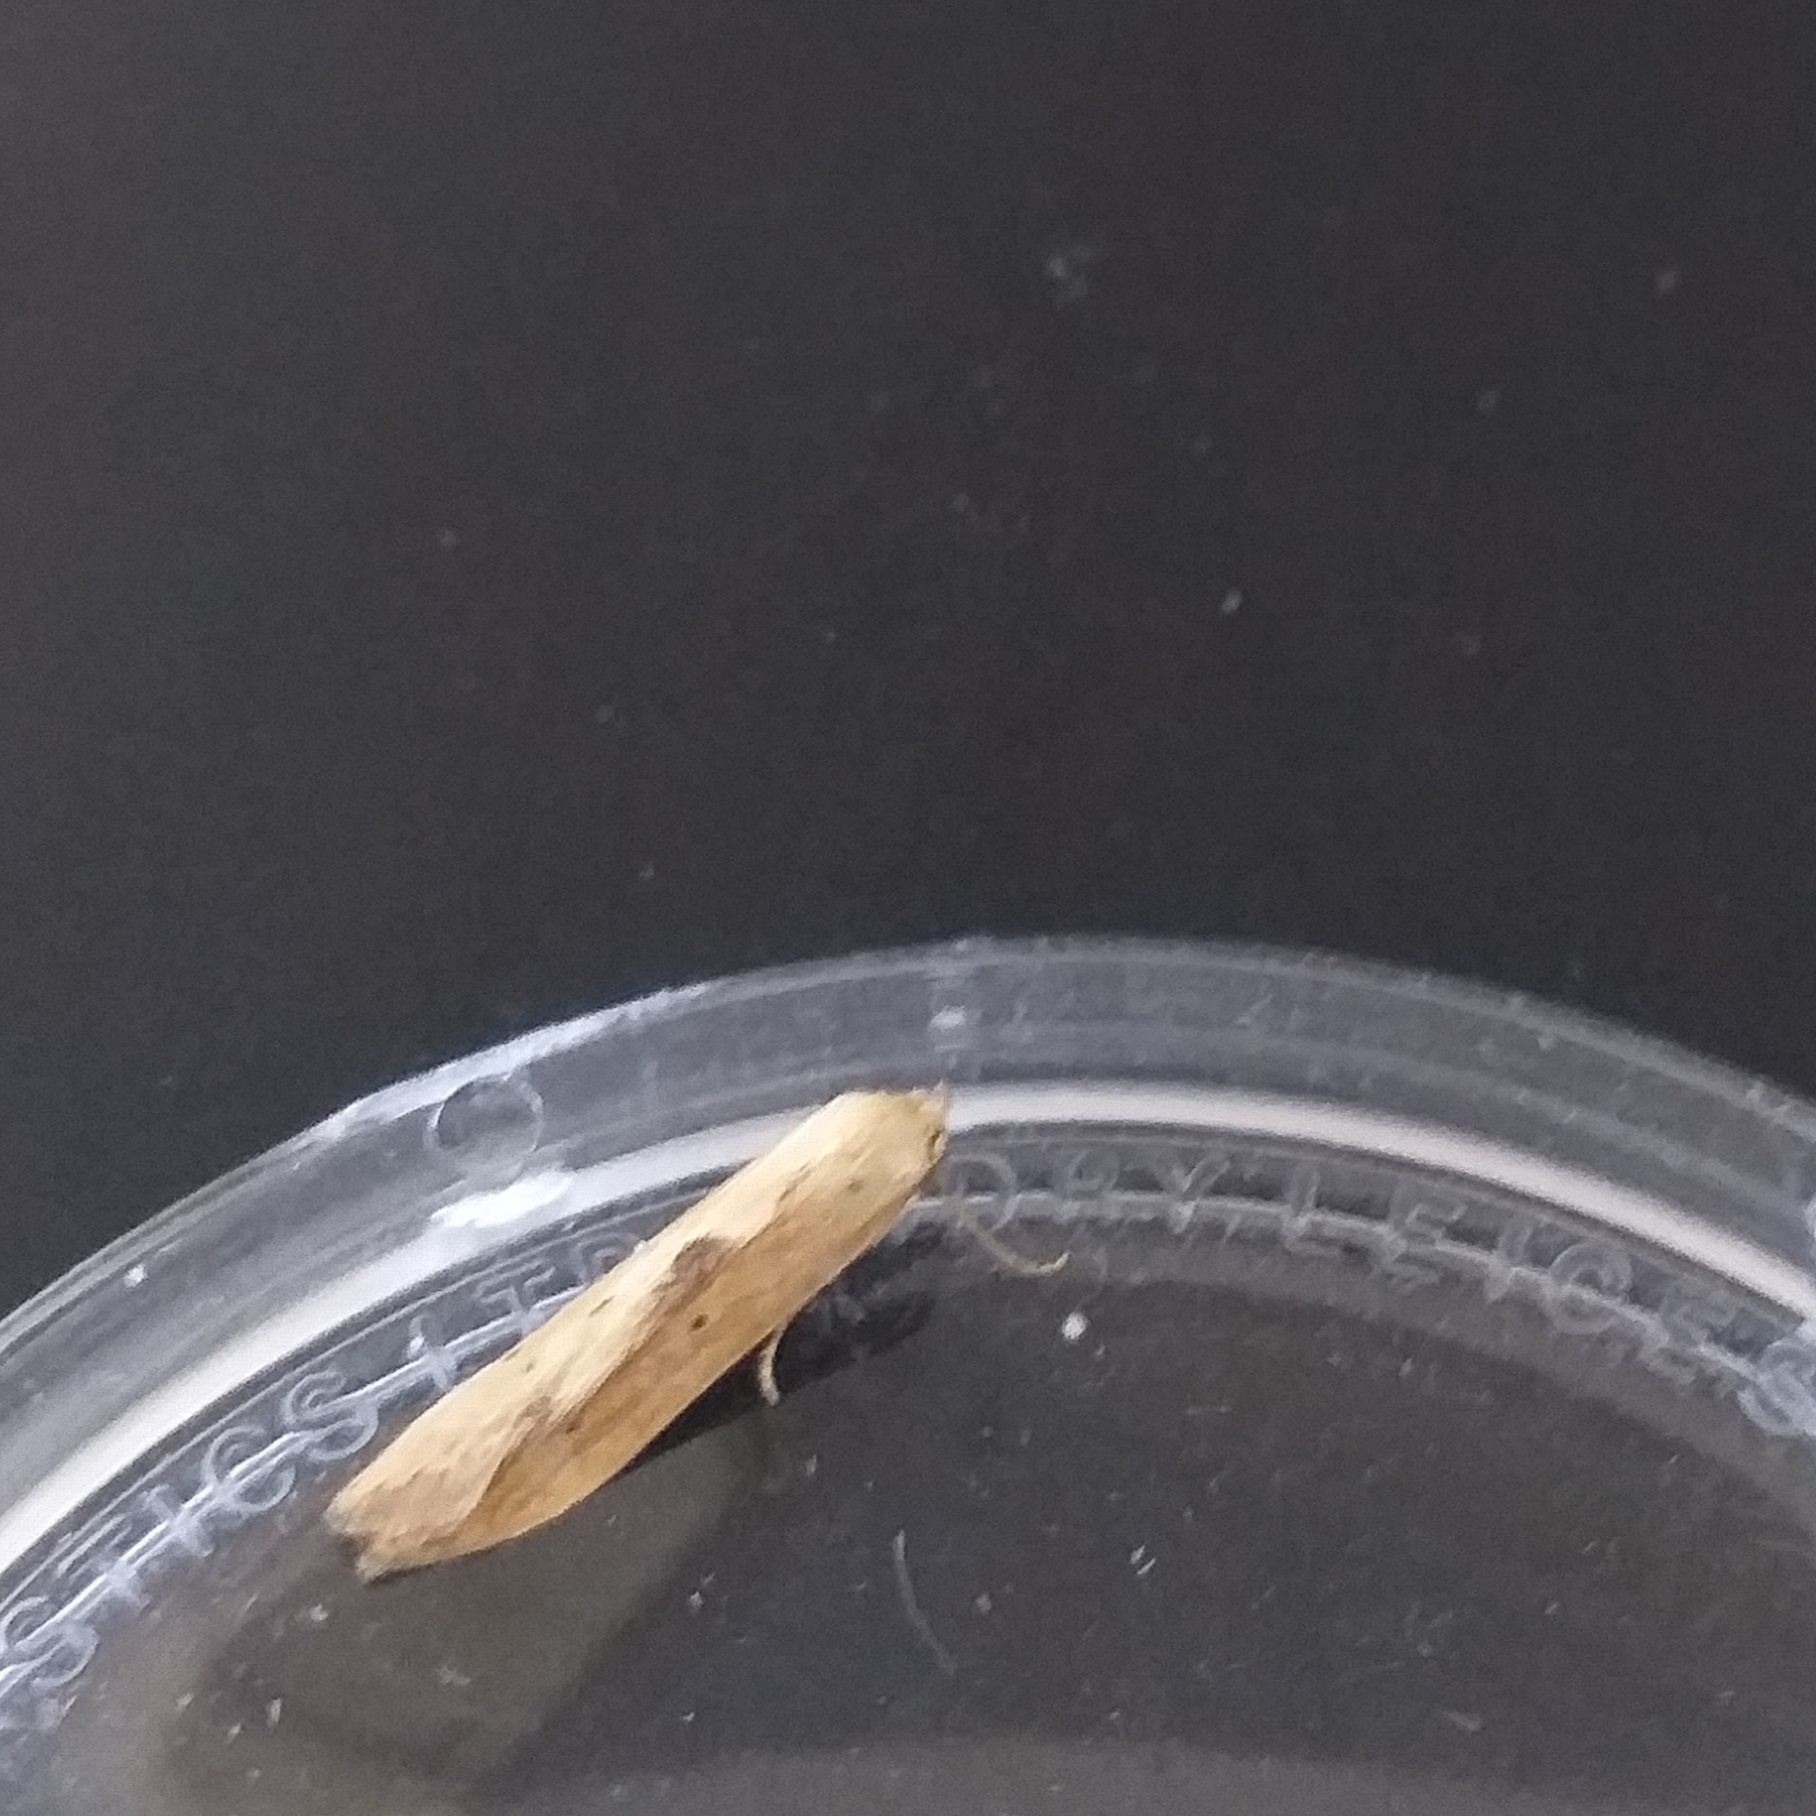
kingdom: Animalia
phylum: Arthropoda
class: Insecta
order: Lepidoptera
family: Blastobasidae
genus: Blastobasis
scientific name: Blastobasis lacticolella
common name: London dowd
